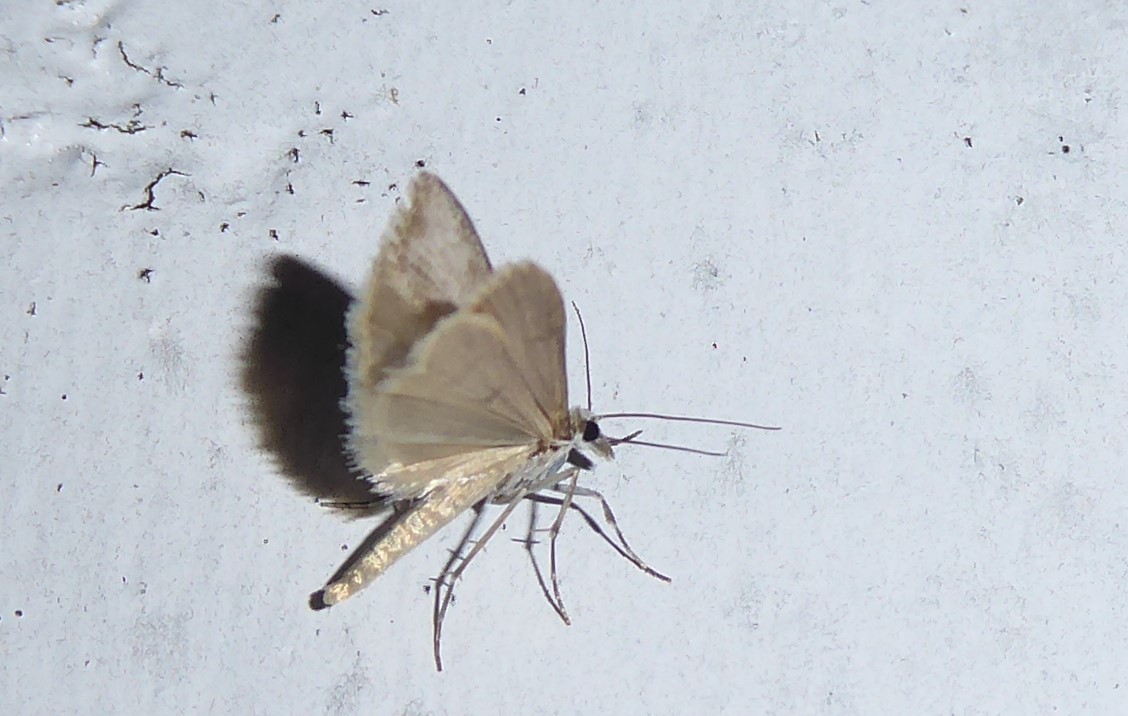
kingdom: Animalia
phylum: Arthropoda
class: Insecta
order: Lepidoptera
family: Crambidae
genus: Eudonia
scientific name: Eudonia leptalea
